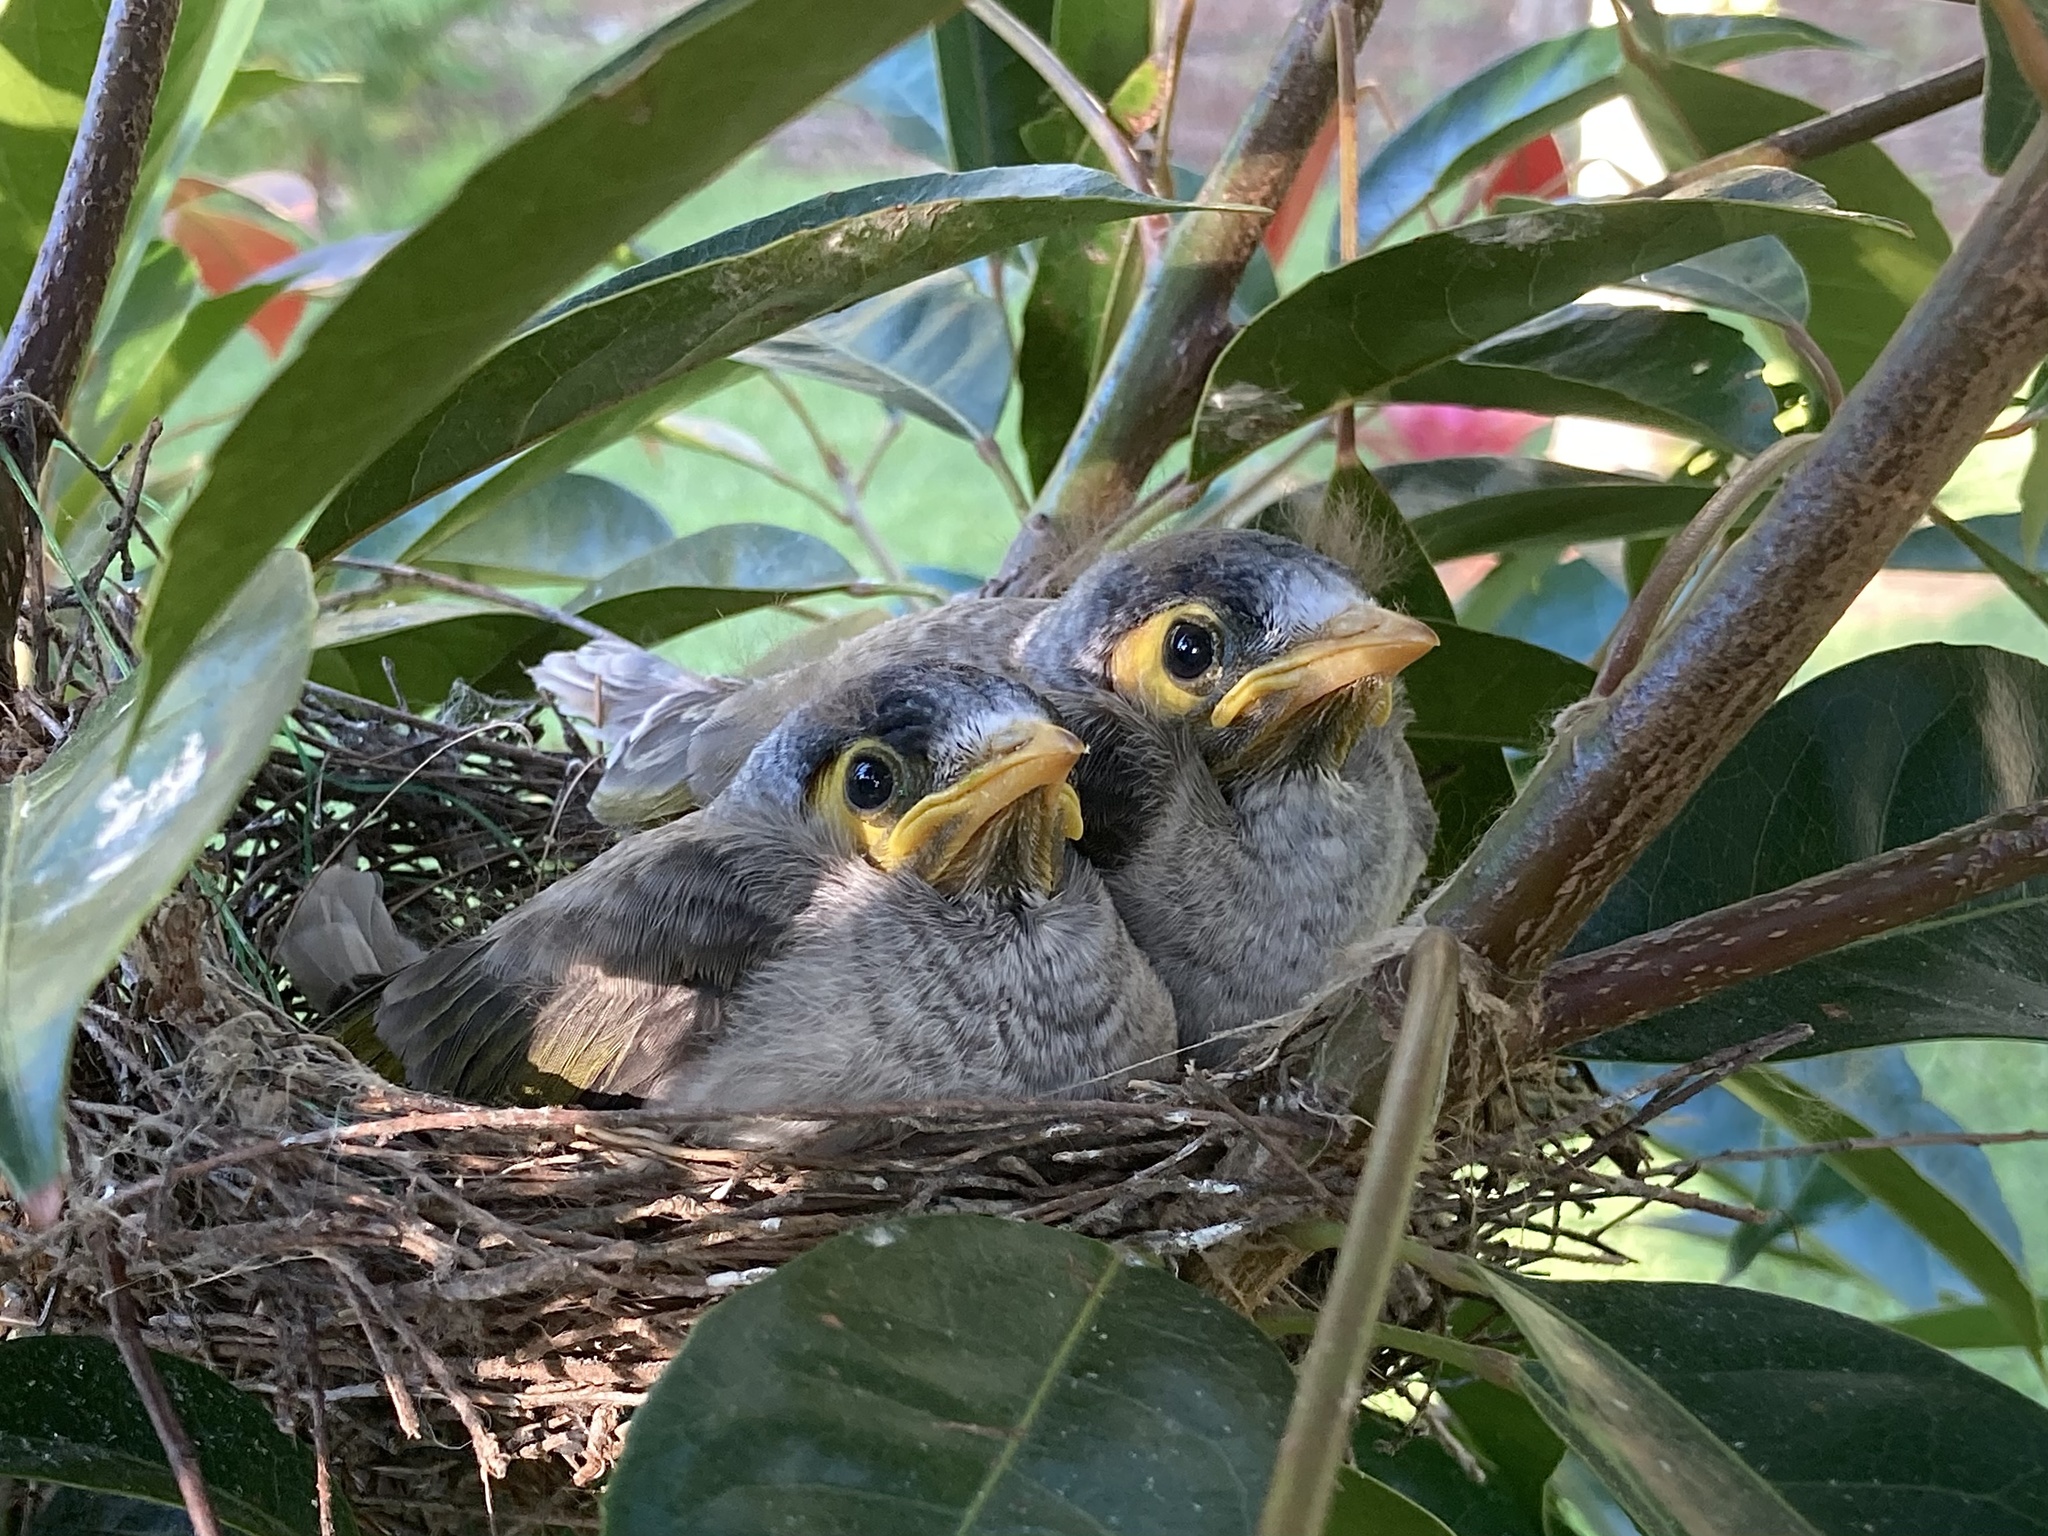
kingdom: Animalia
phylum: Chordata
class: Aves
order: Passeriformes
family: Meliphagidae
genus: Manorina
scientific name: Manorina melanocephala
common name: Noisy miner
